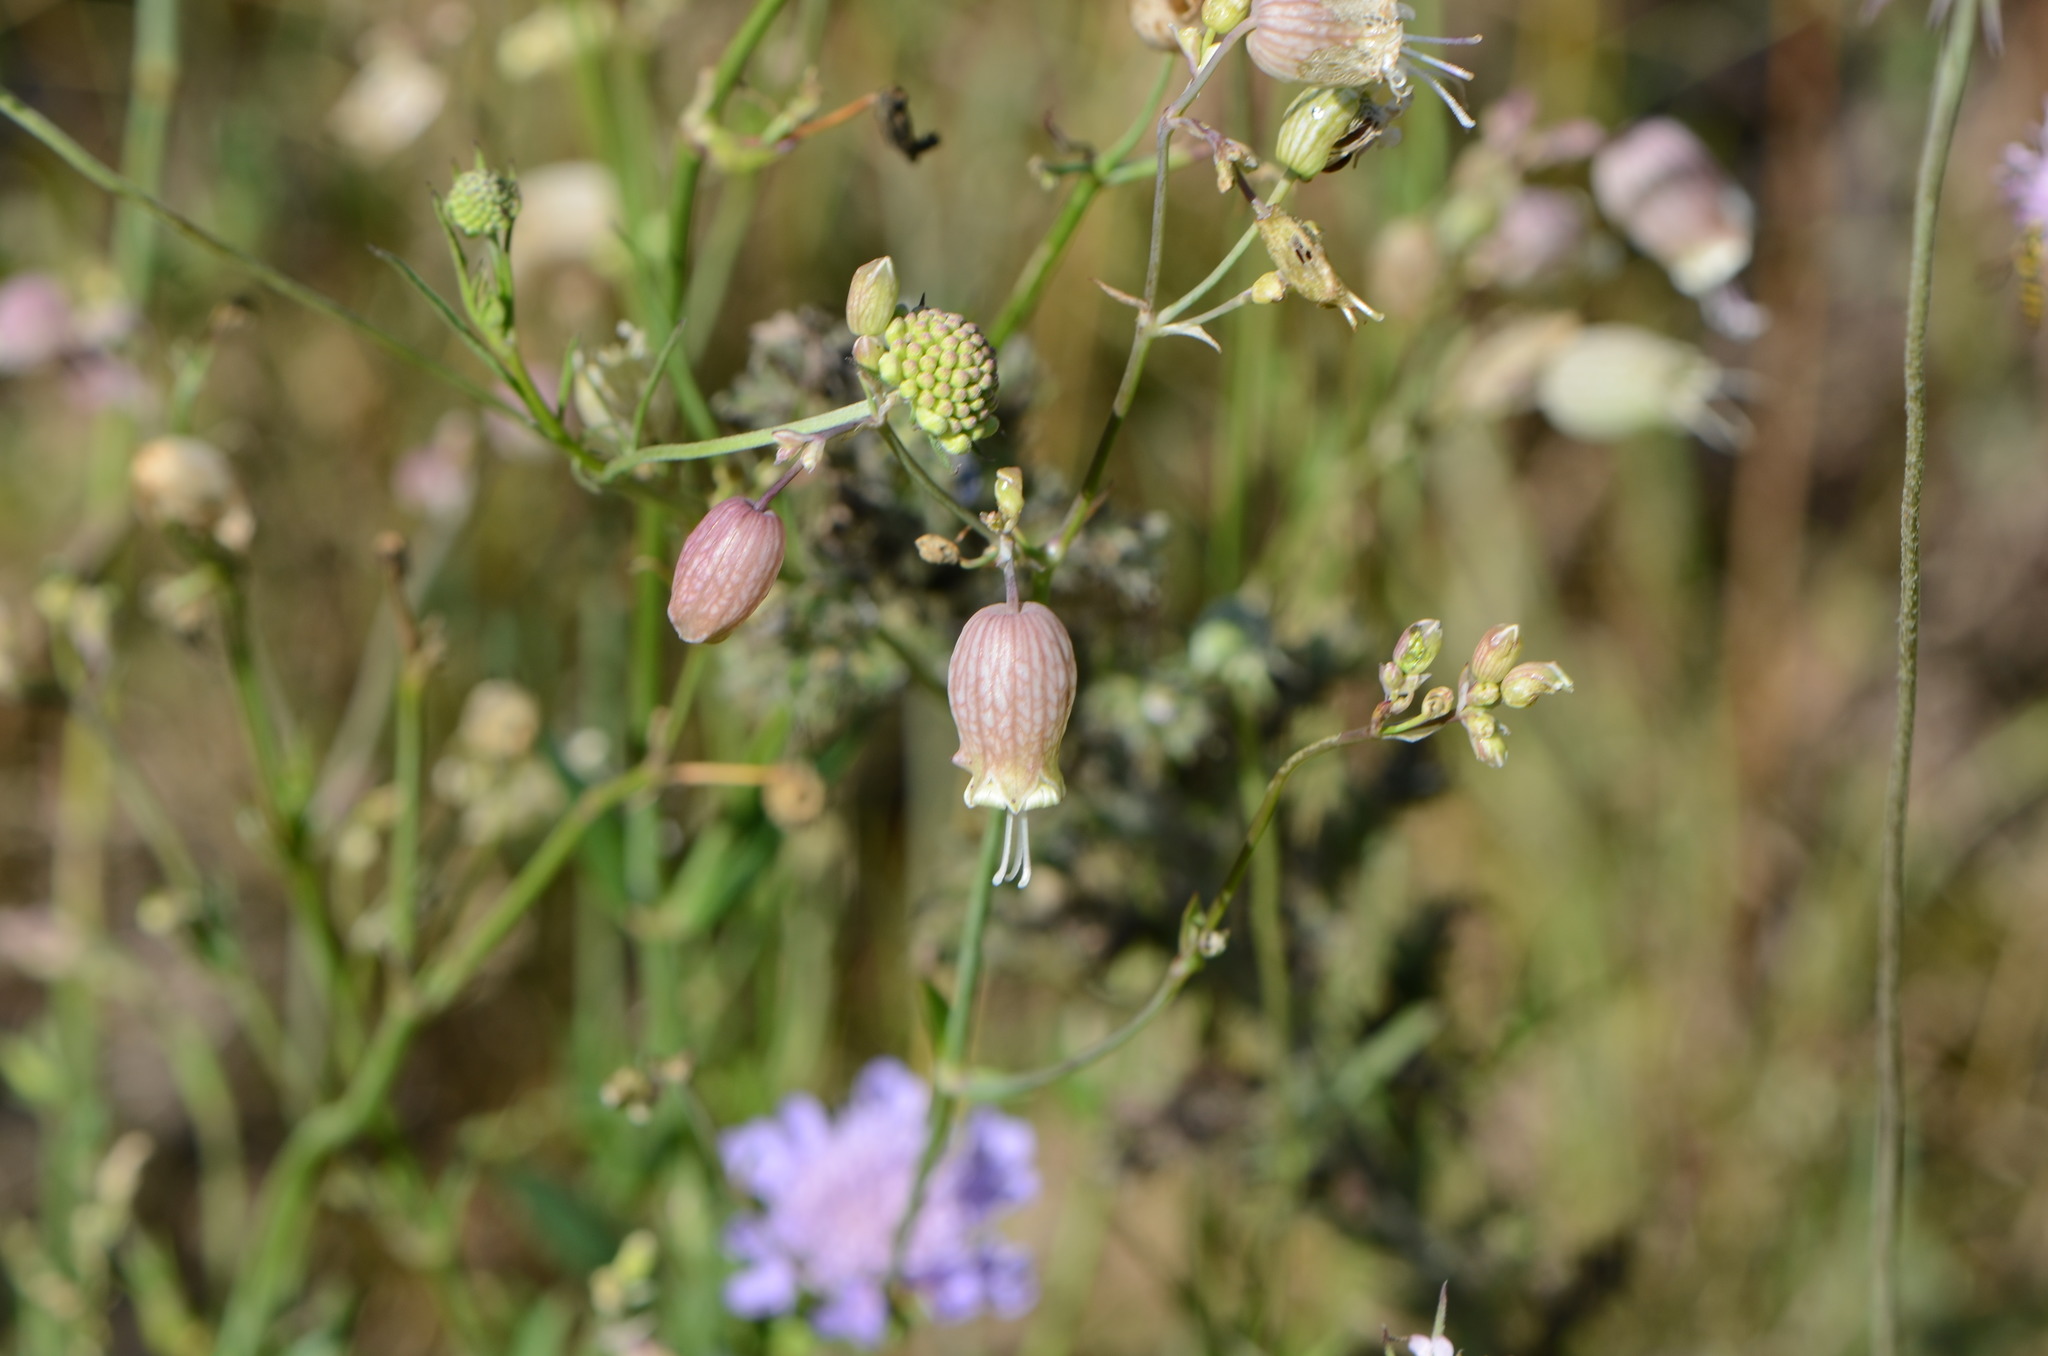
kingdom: Plantae
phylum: Tracheophyta
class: Magnoliopsida
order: Caryophyllales
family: Caryophyllaceae
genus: Silene
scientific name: Silene vulgaris
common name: Bladder campion
